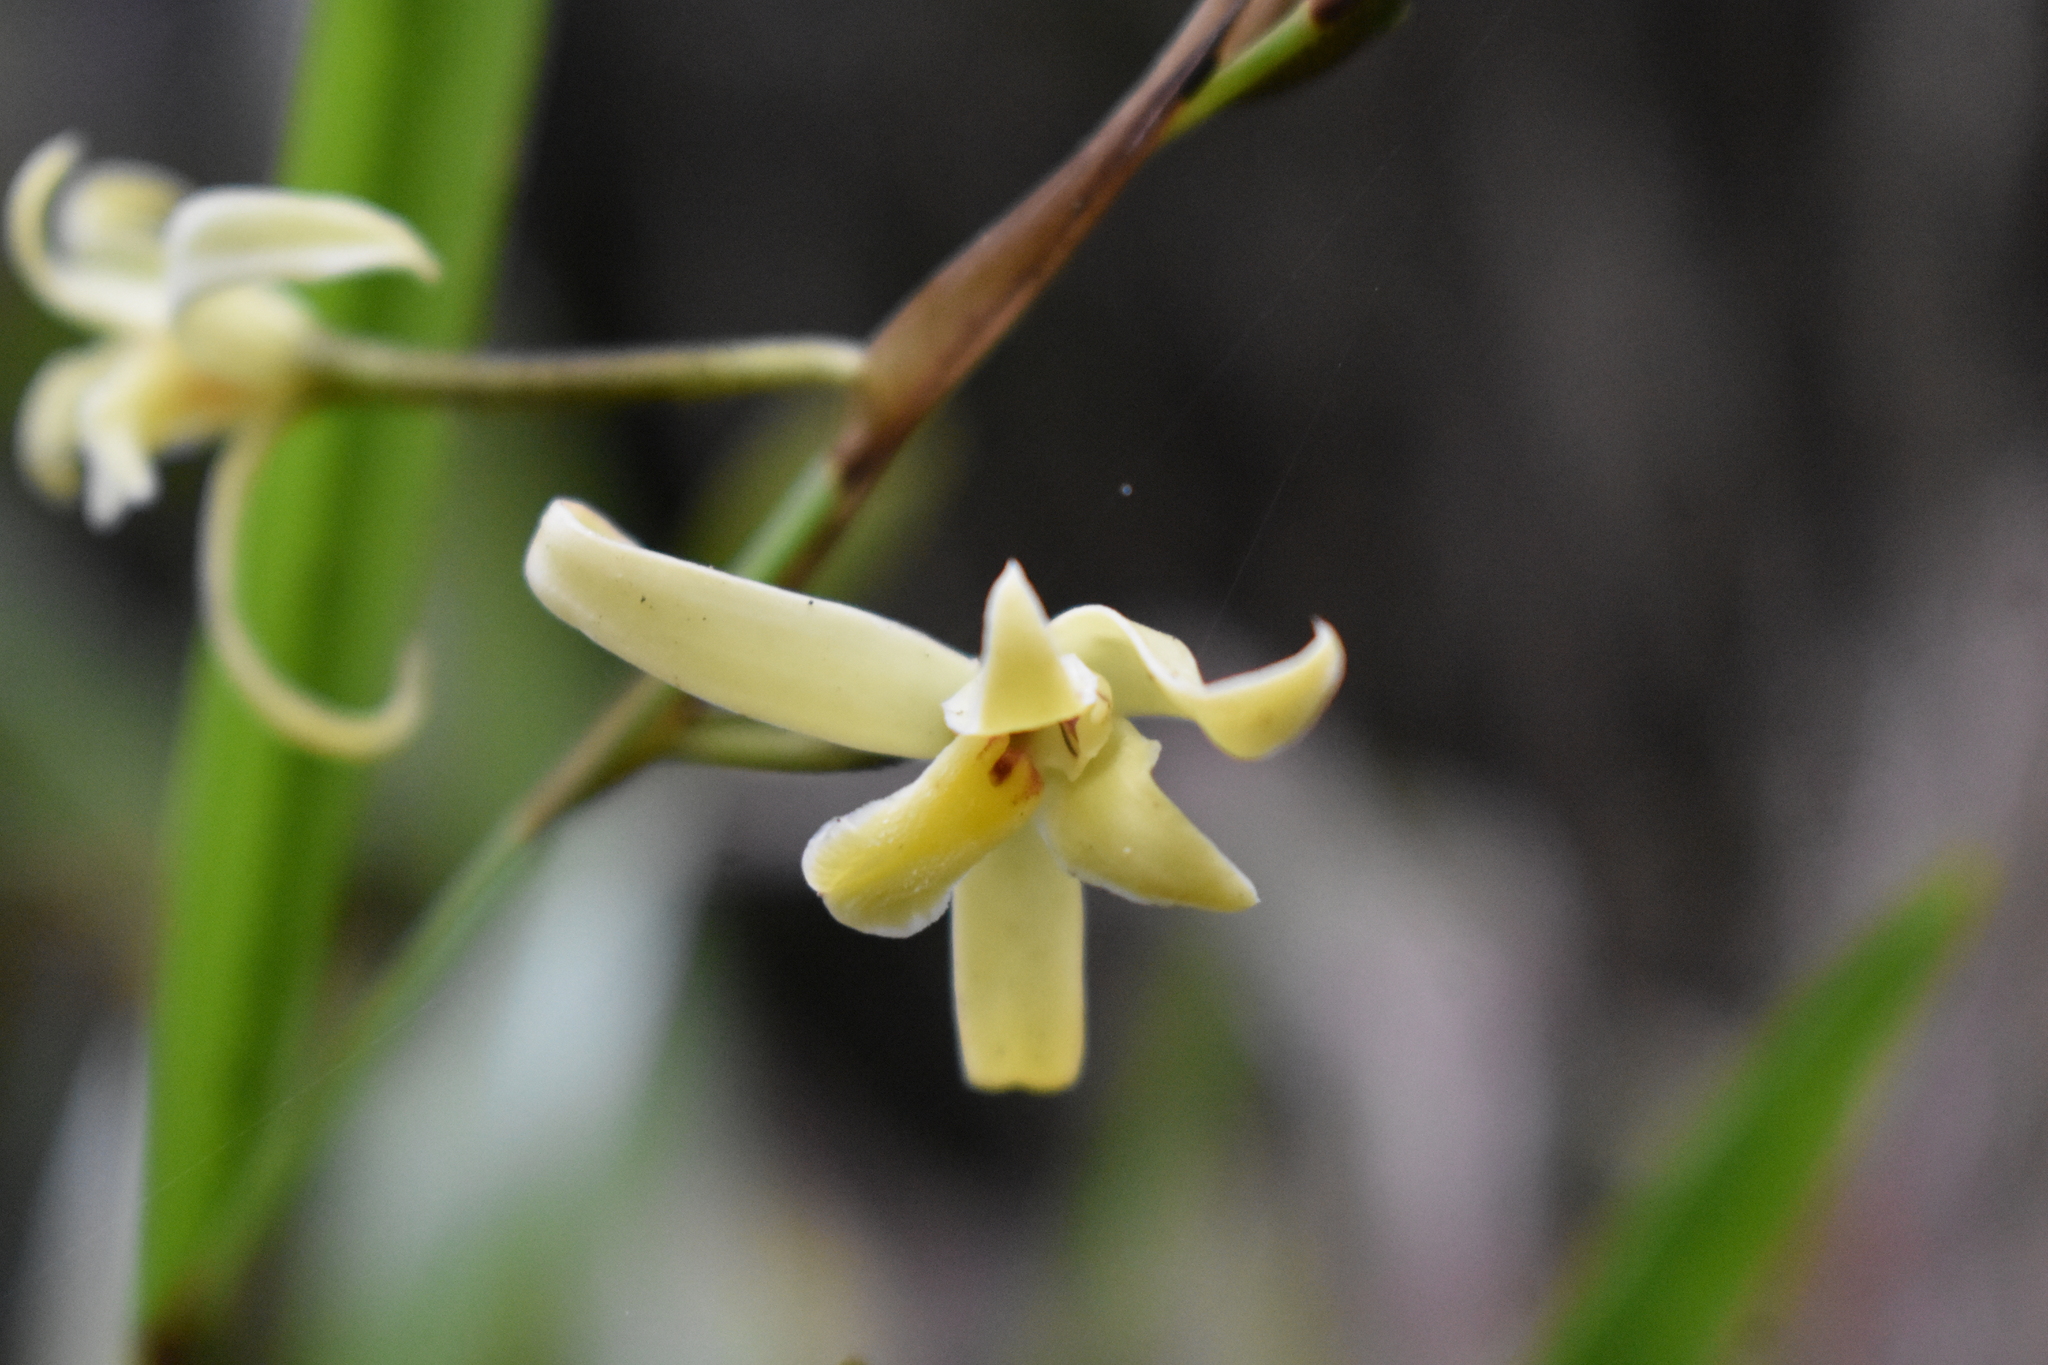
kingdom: Plantae
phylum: Tracheophyta
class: Liliopsida
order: Asparagales
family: Orchidaceae
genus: Nidema
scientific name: Nidema boothii
